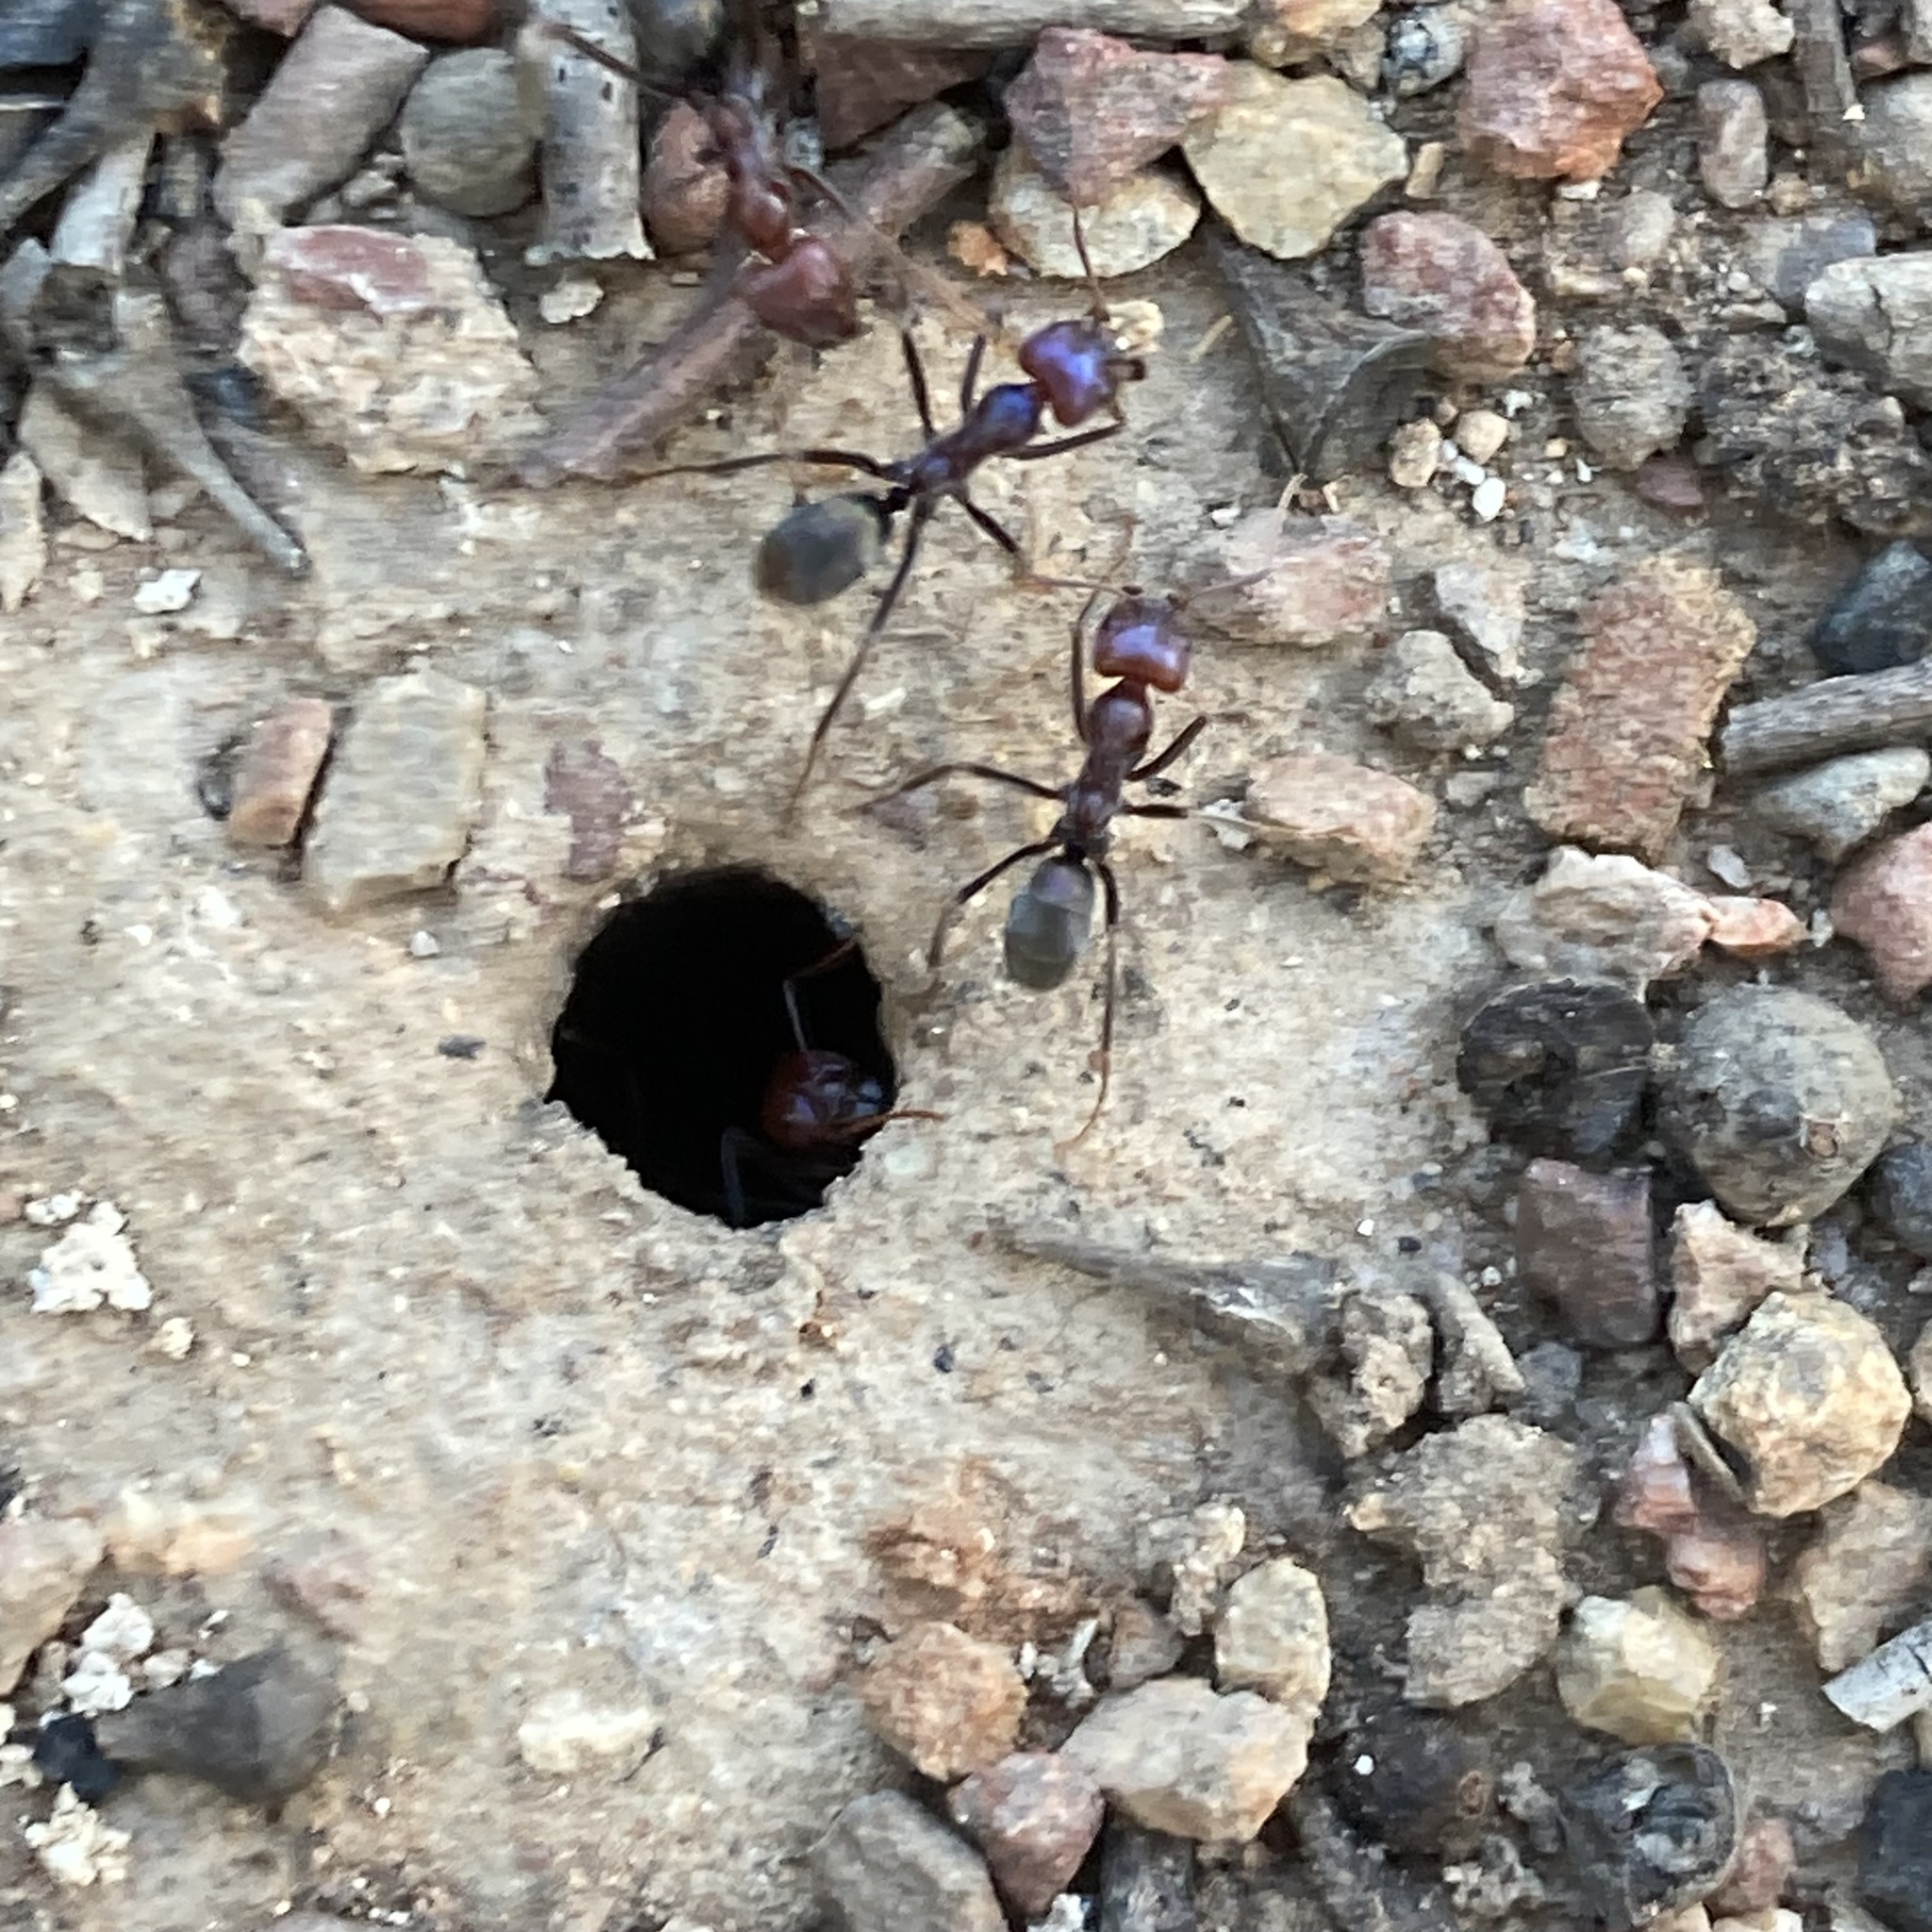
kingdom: Animalia
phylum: Arthropoda
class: Insecta
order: Hymenoptera
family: Formicidae
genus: Iridomyrmex
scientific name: Iridomyrmex purpureus
